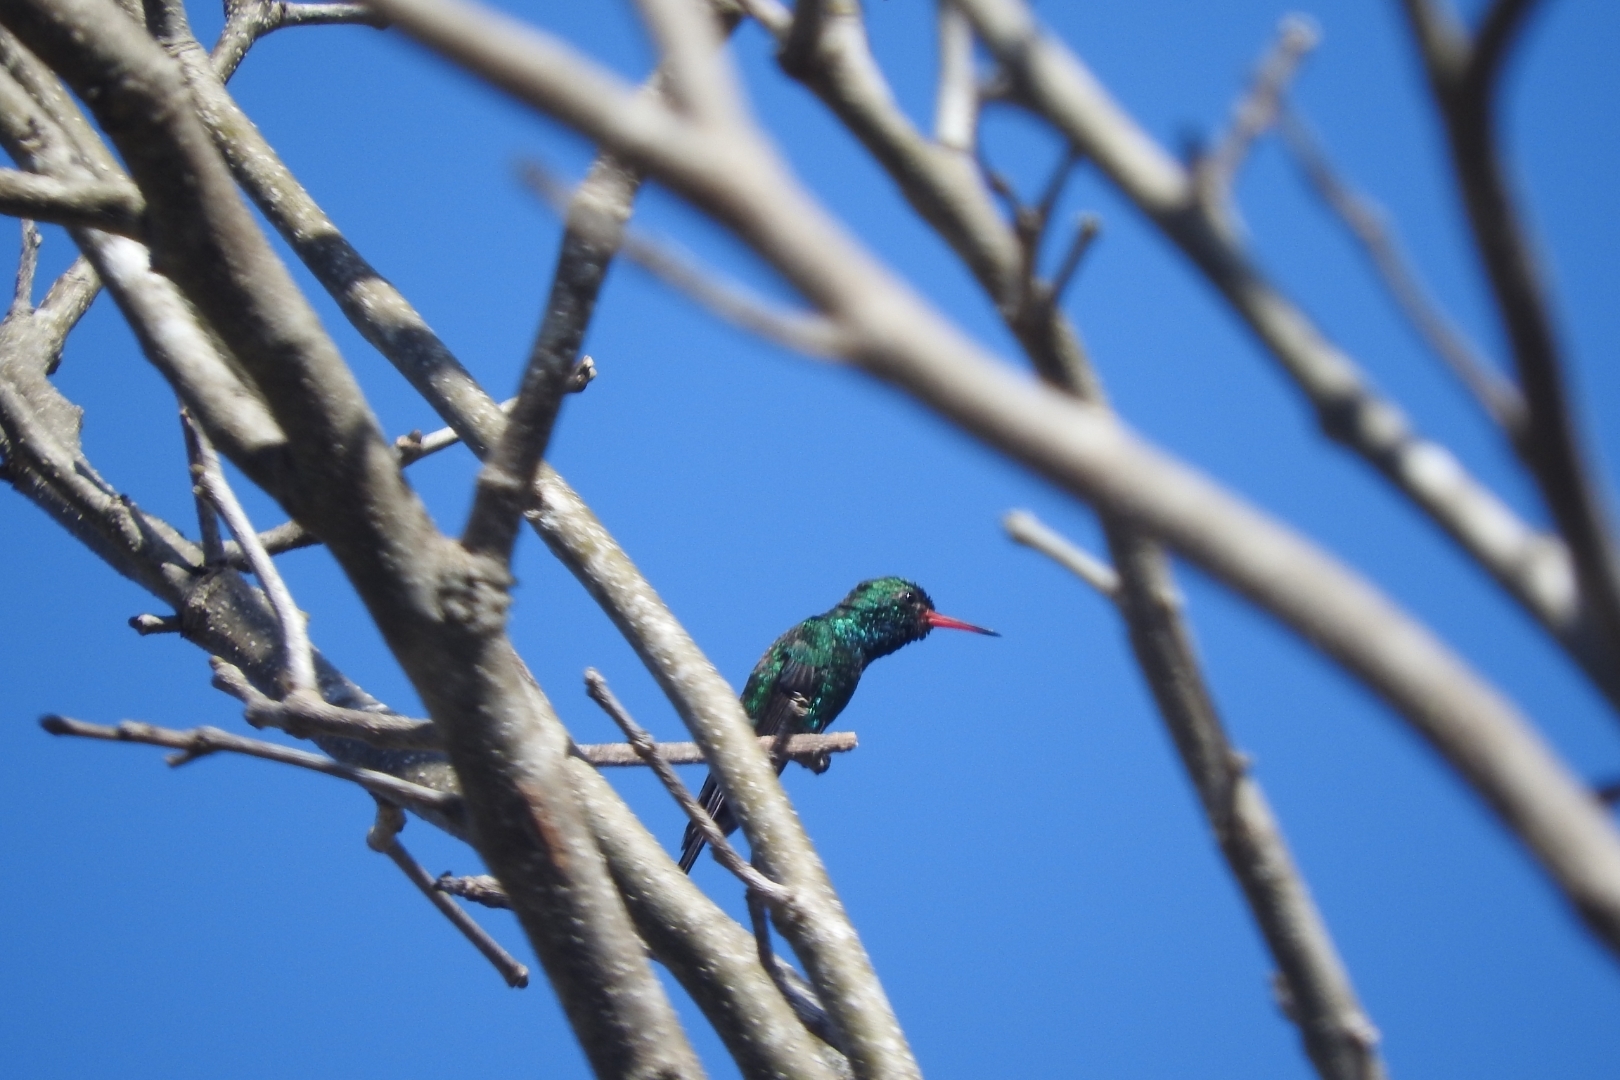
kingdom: Animalia
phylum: Chordata
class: Aves
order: Apodiformes
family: Trochilidae
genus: Cynanthus
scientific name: Cynanthus canivetii
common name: Canivet's emerald
